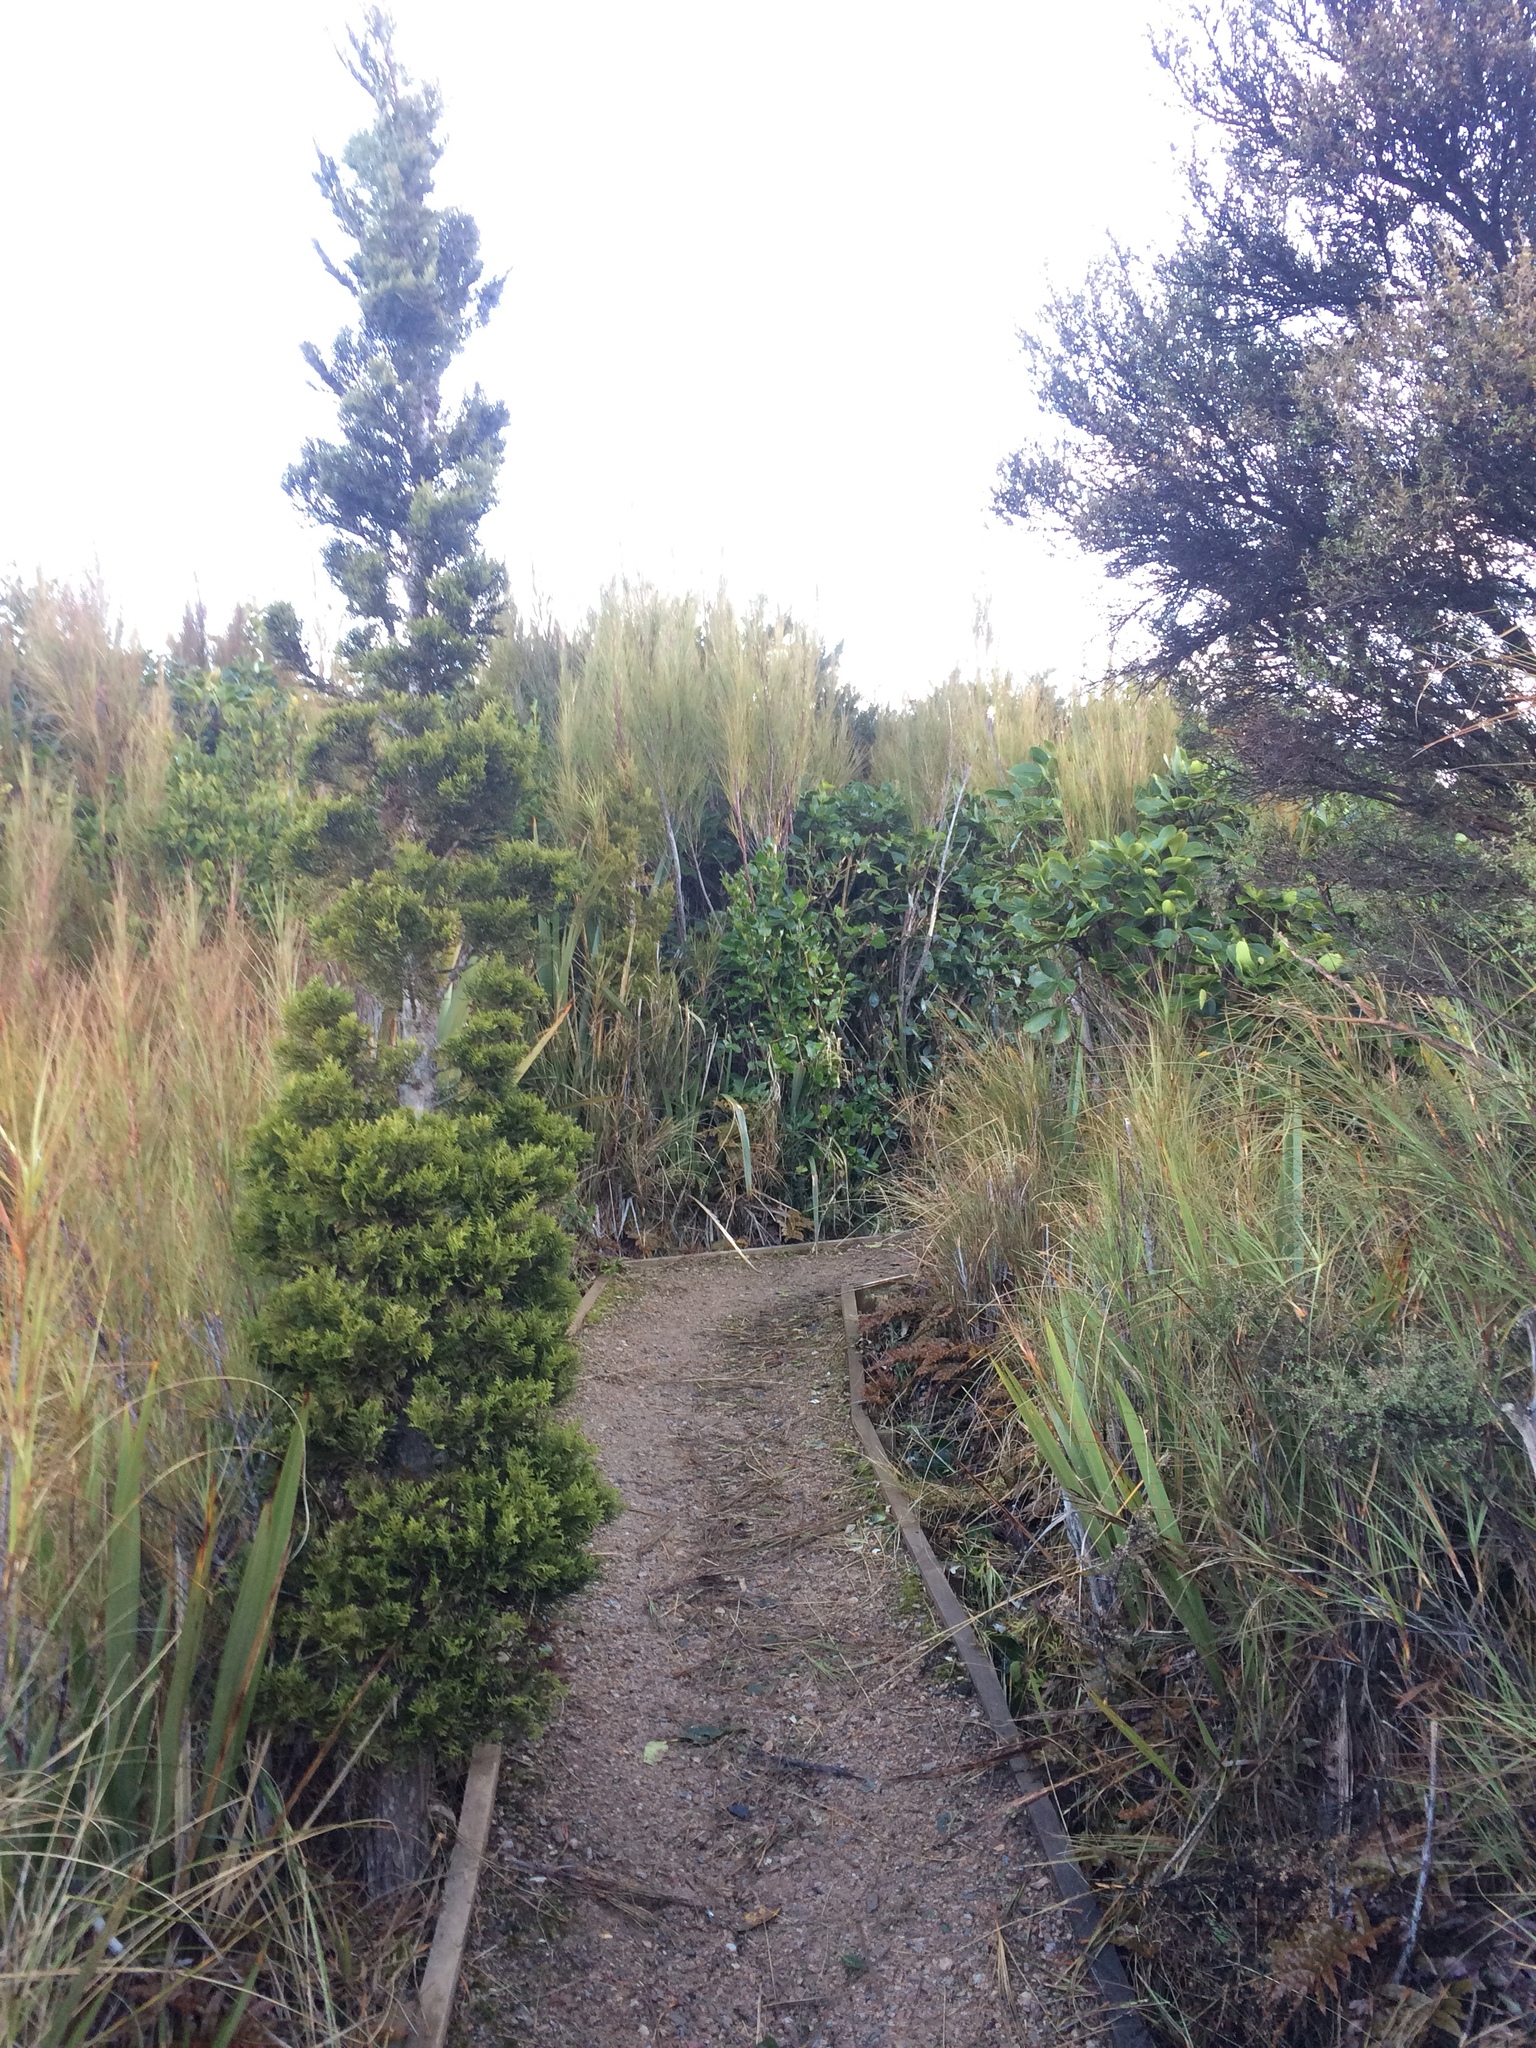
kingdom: Plantae
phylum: Tracheophyta
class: Pinopsida
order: Pinales
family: Cupressaceae
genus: Libocedrus
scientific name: Libocedrus bidwillii
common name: Cedar
